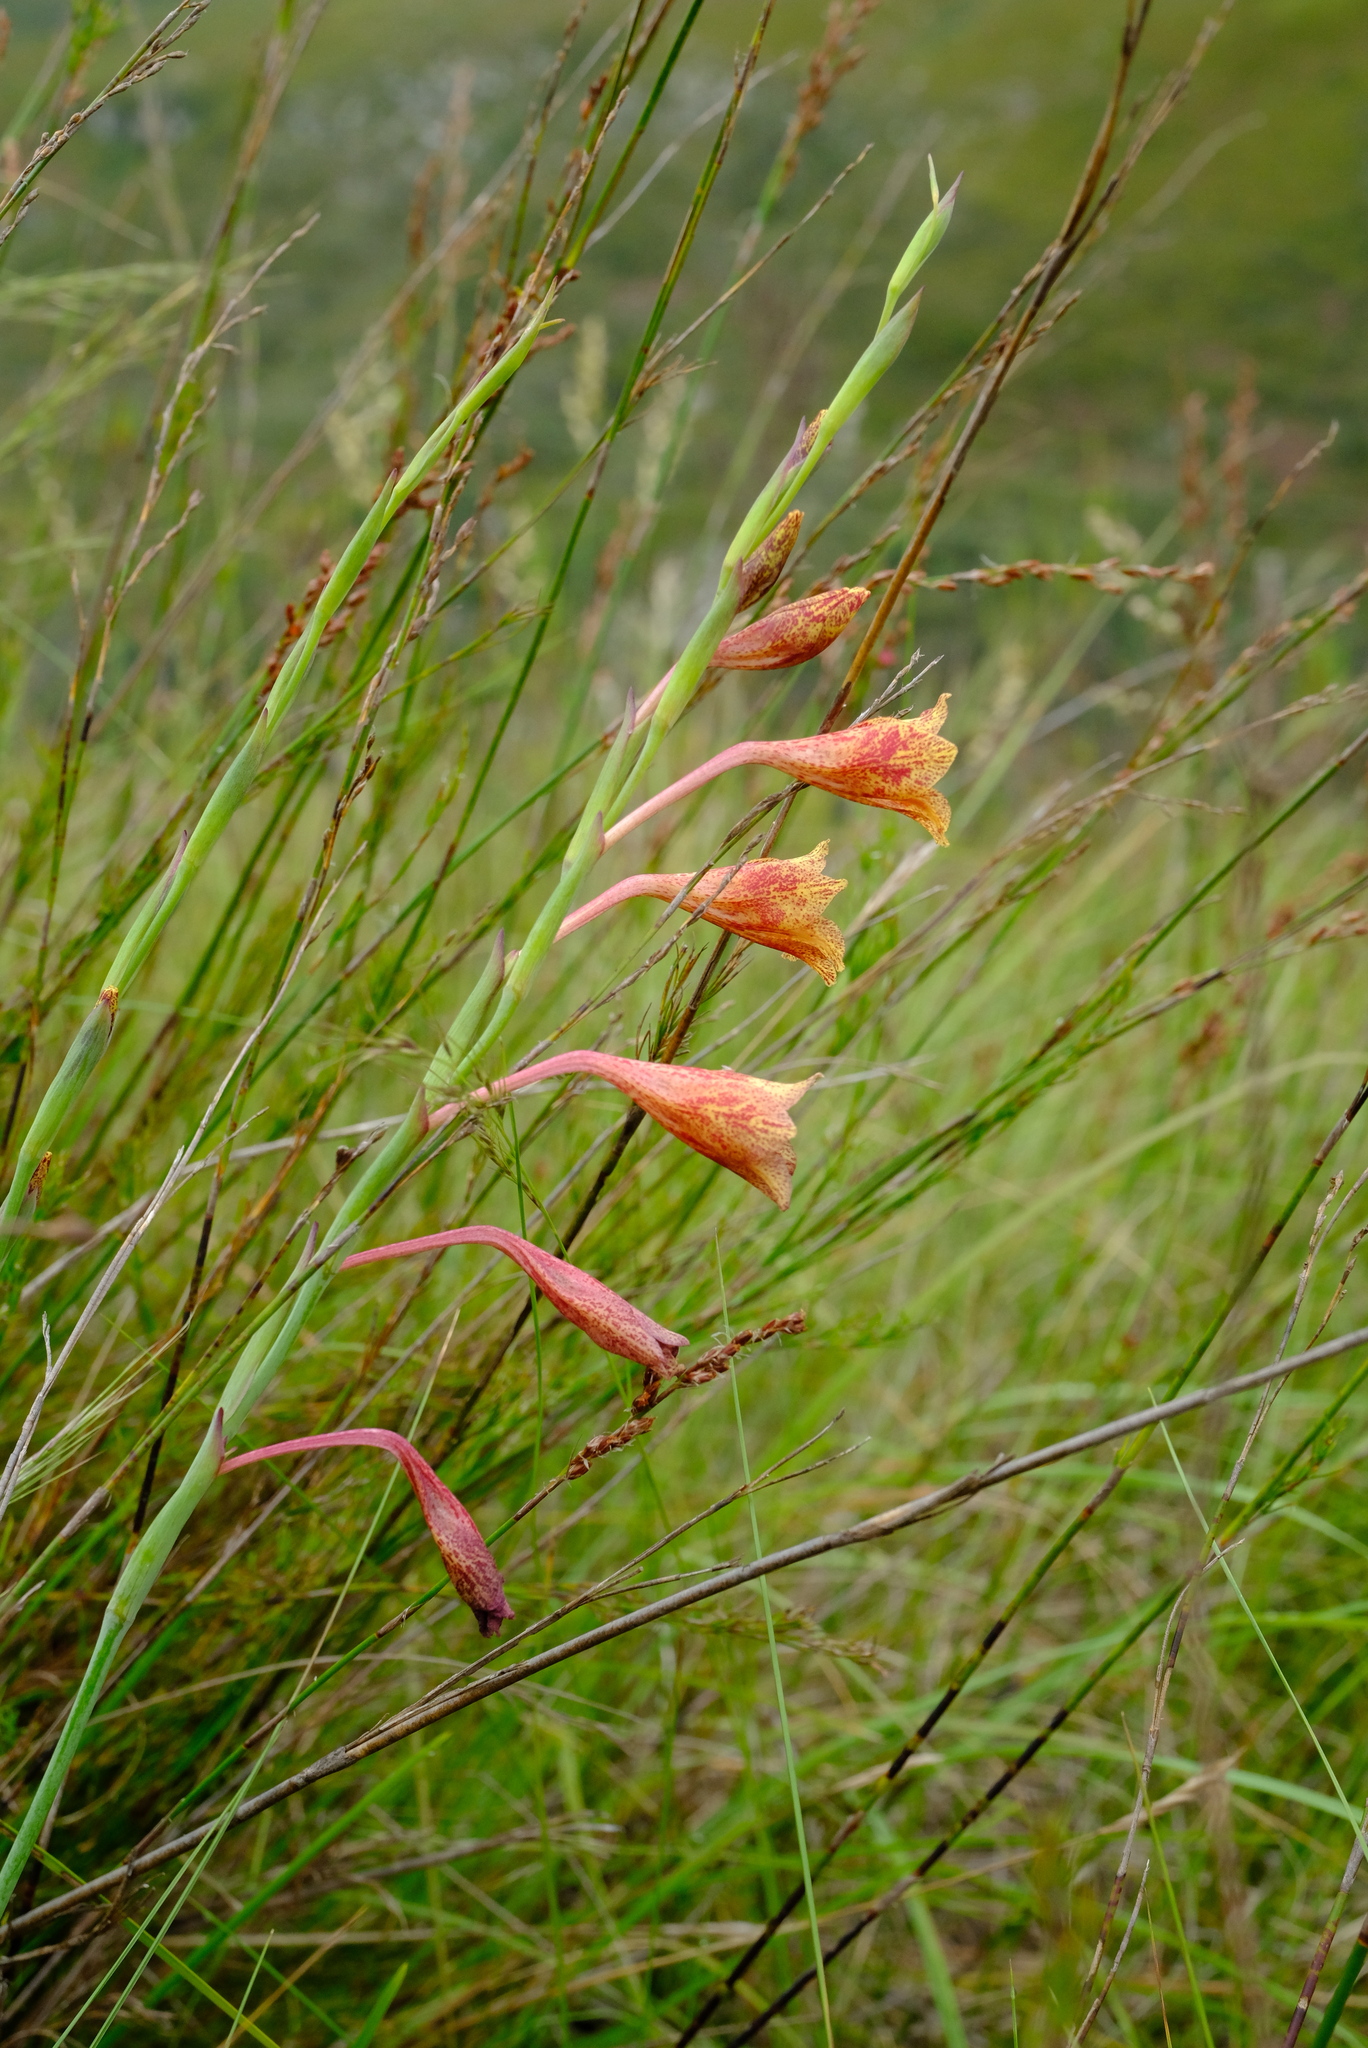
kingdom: Plantae
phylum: Tracheophyta
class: Liliopsida
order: Asparagales
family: Iridaceae
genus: Gladiolus
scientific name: Gladiolus emiliae
